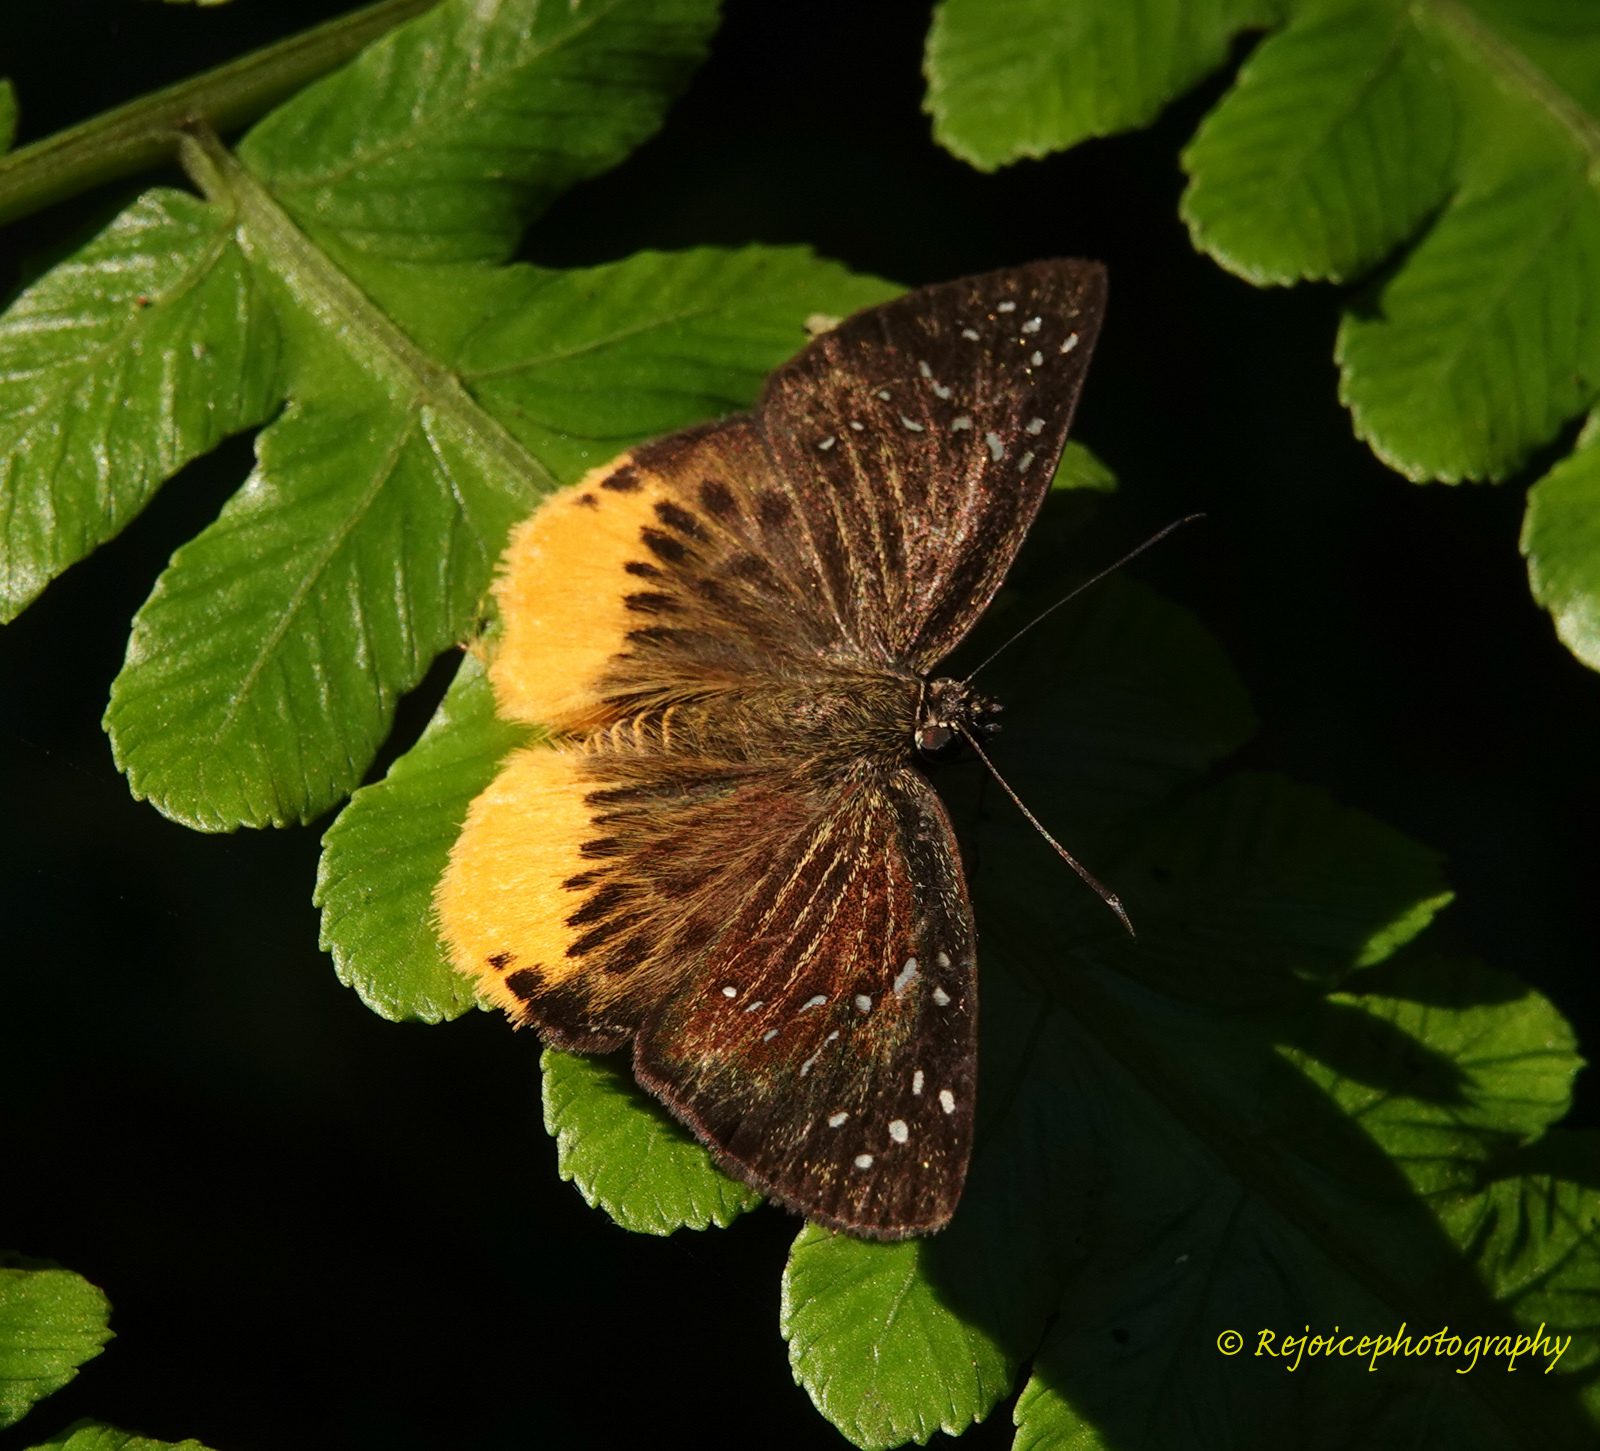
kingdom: Animalia
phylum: Arthropoda
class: Insecta
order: Lepidoptera
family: Hesperiidae
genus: Mooreana
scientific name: Mooreana trichoneura
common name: Yellow flat
